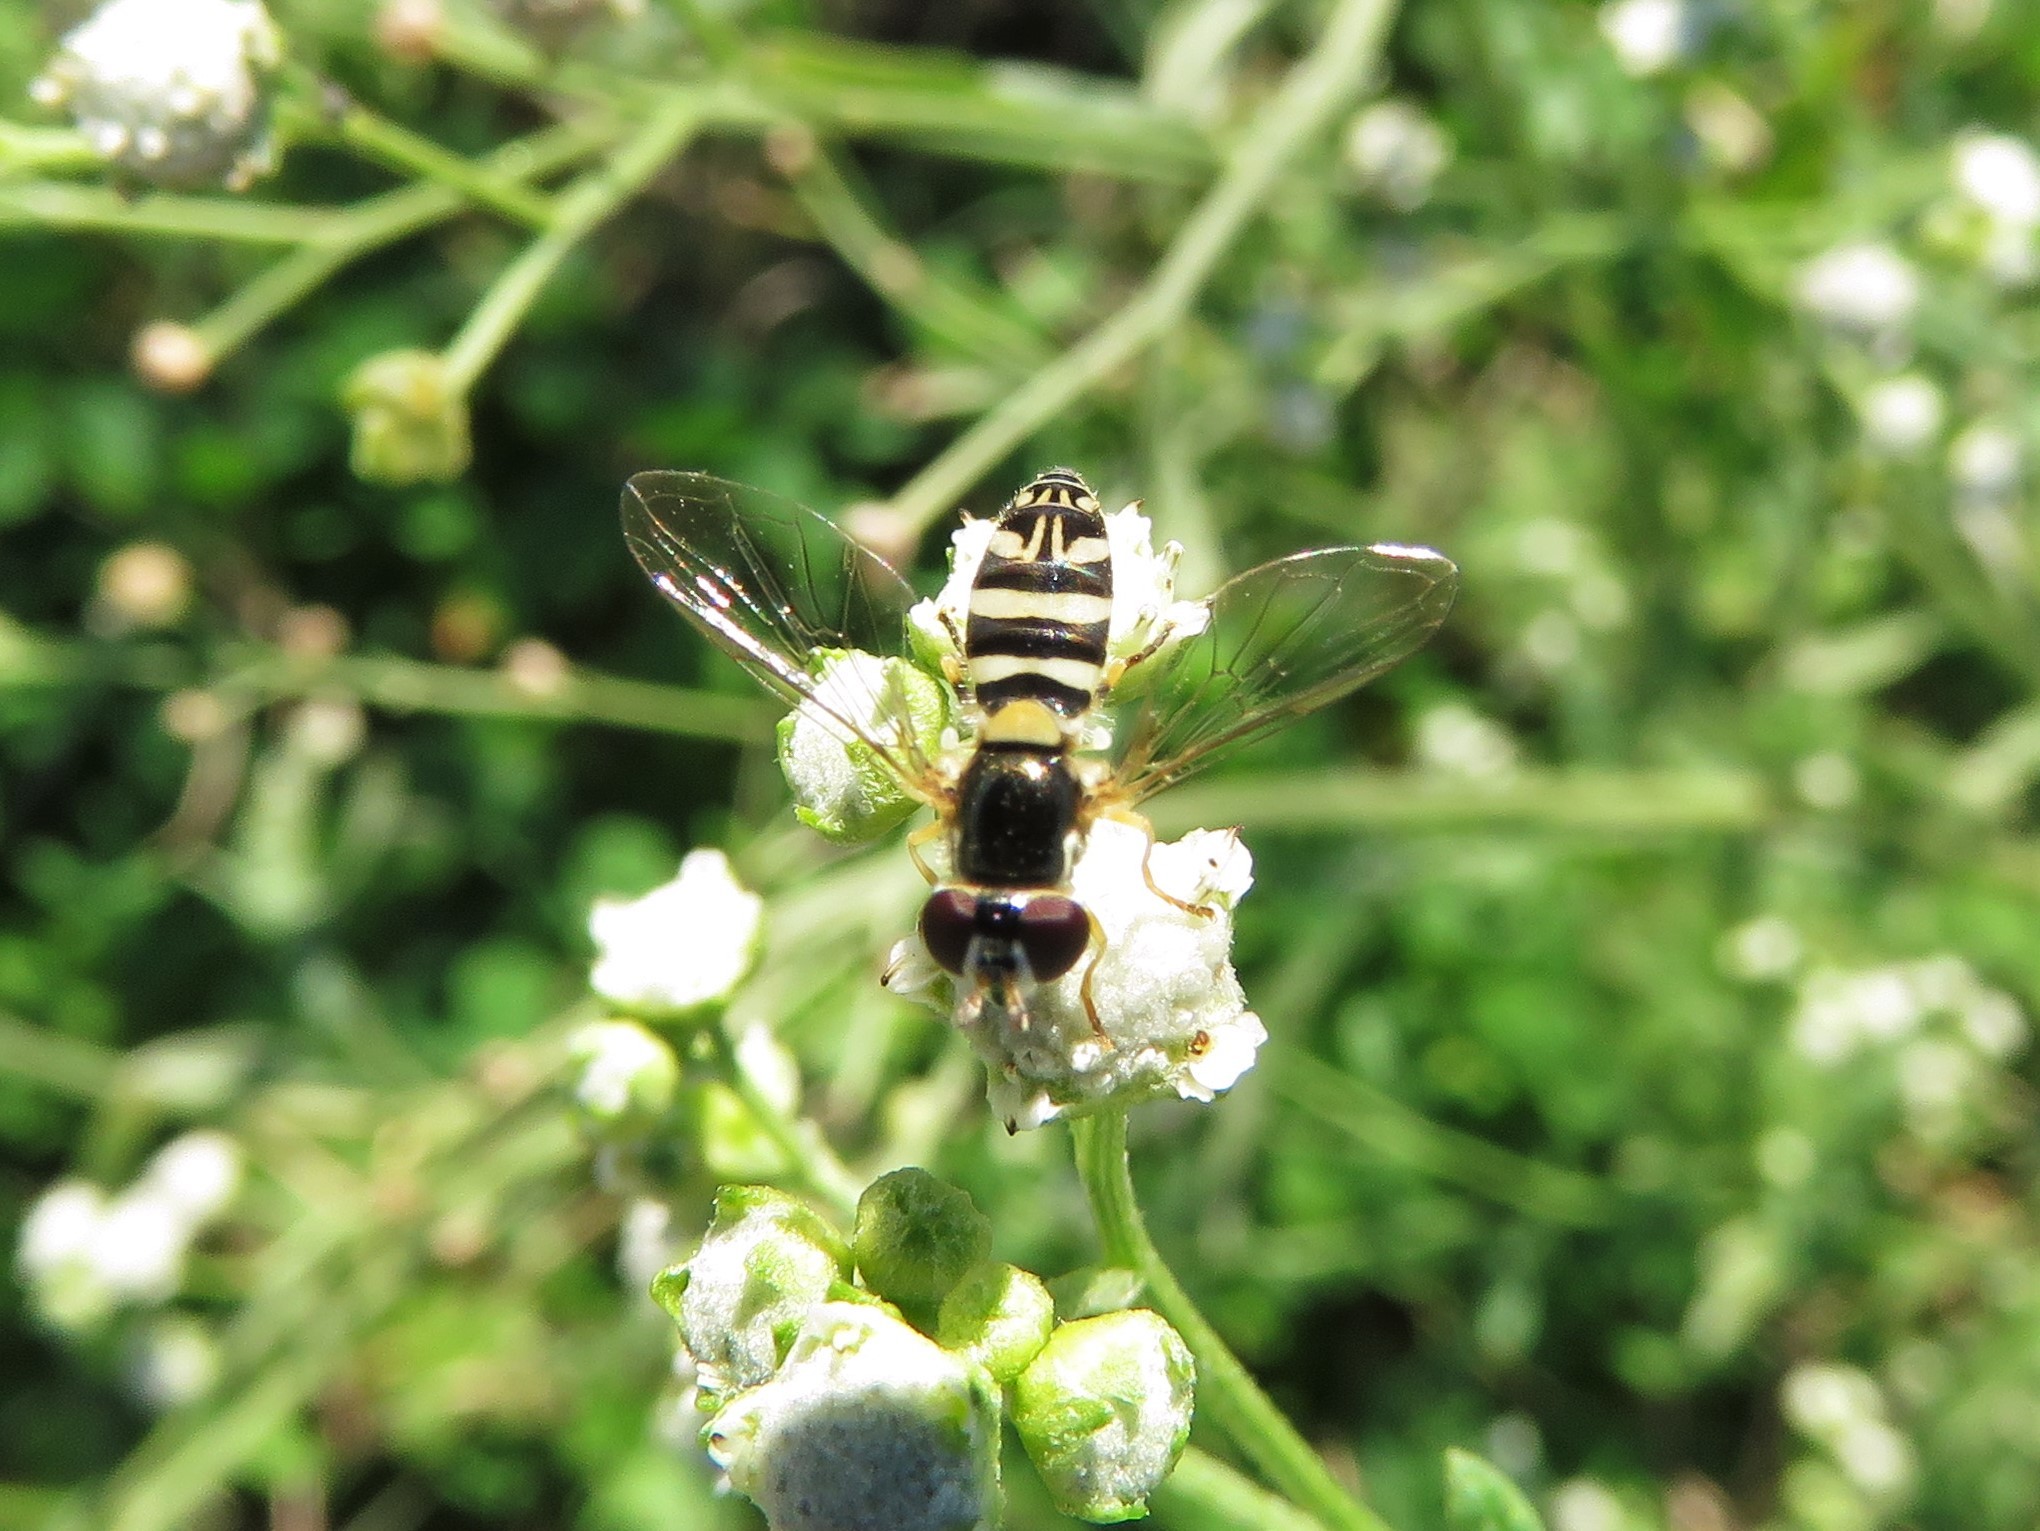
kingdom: Animalia
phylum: Arthropoda
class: Insecta
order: Diptera
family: Syrphidae
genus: Allograpta
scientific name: Allograpta exotica
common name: Syrphid fly
